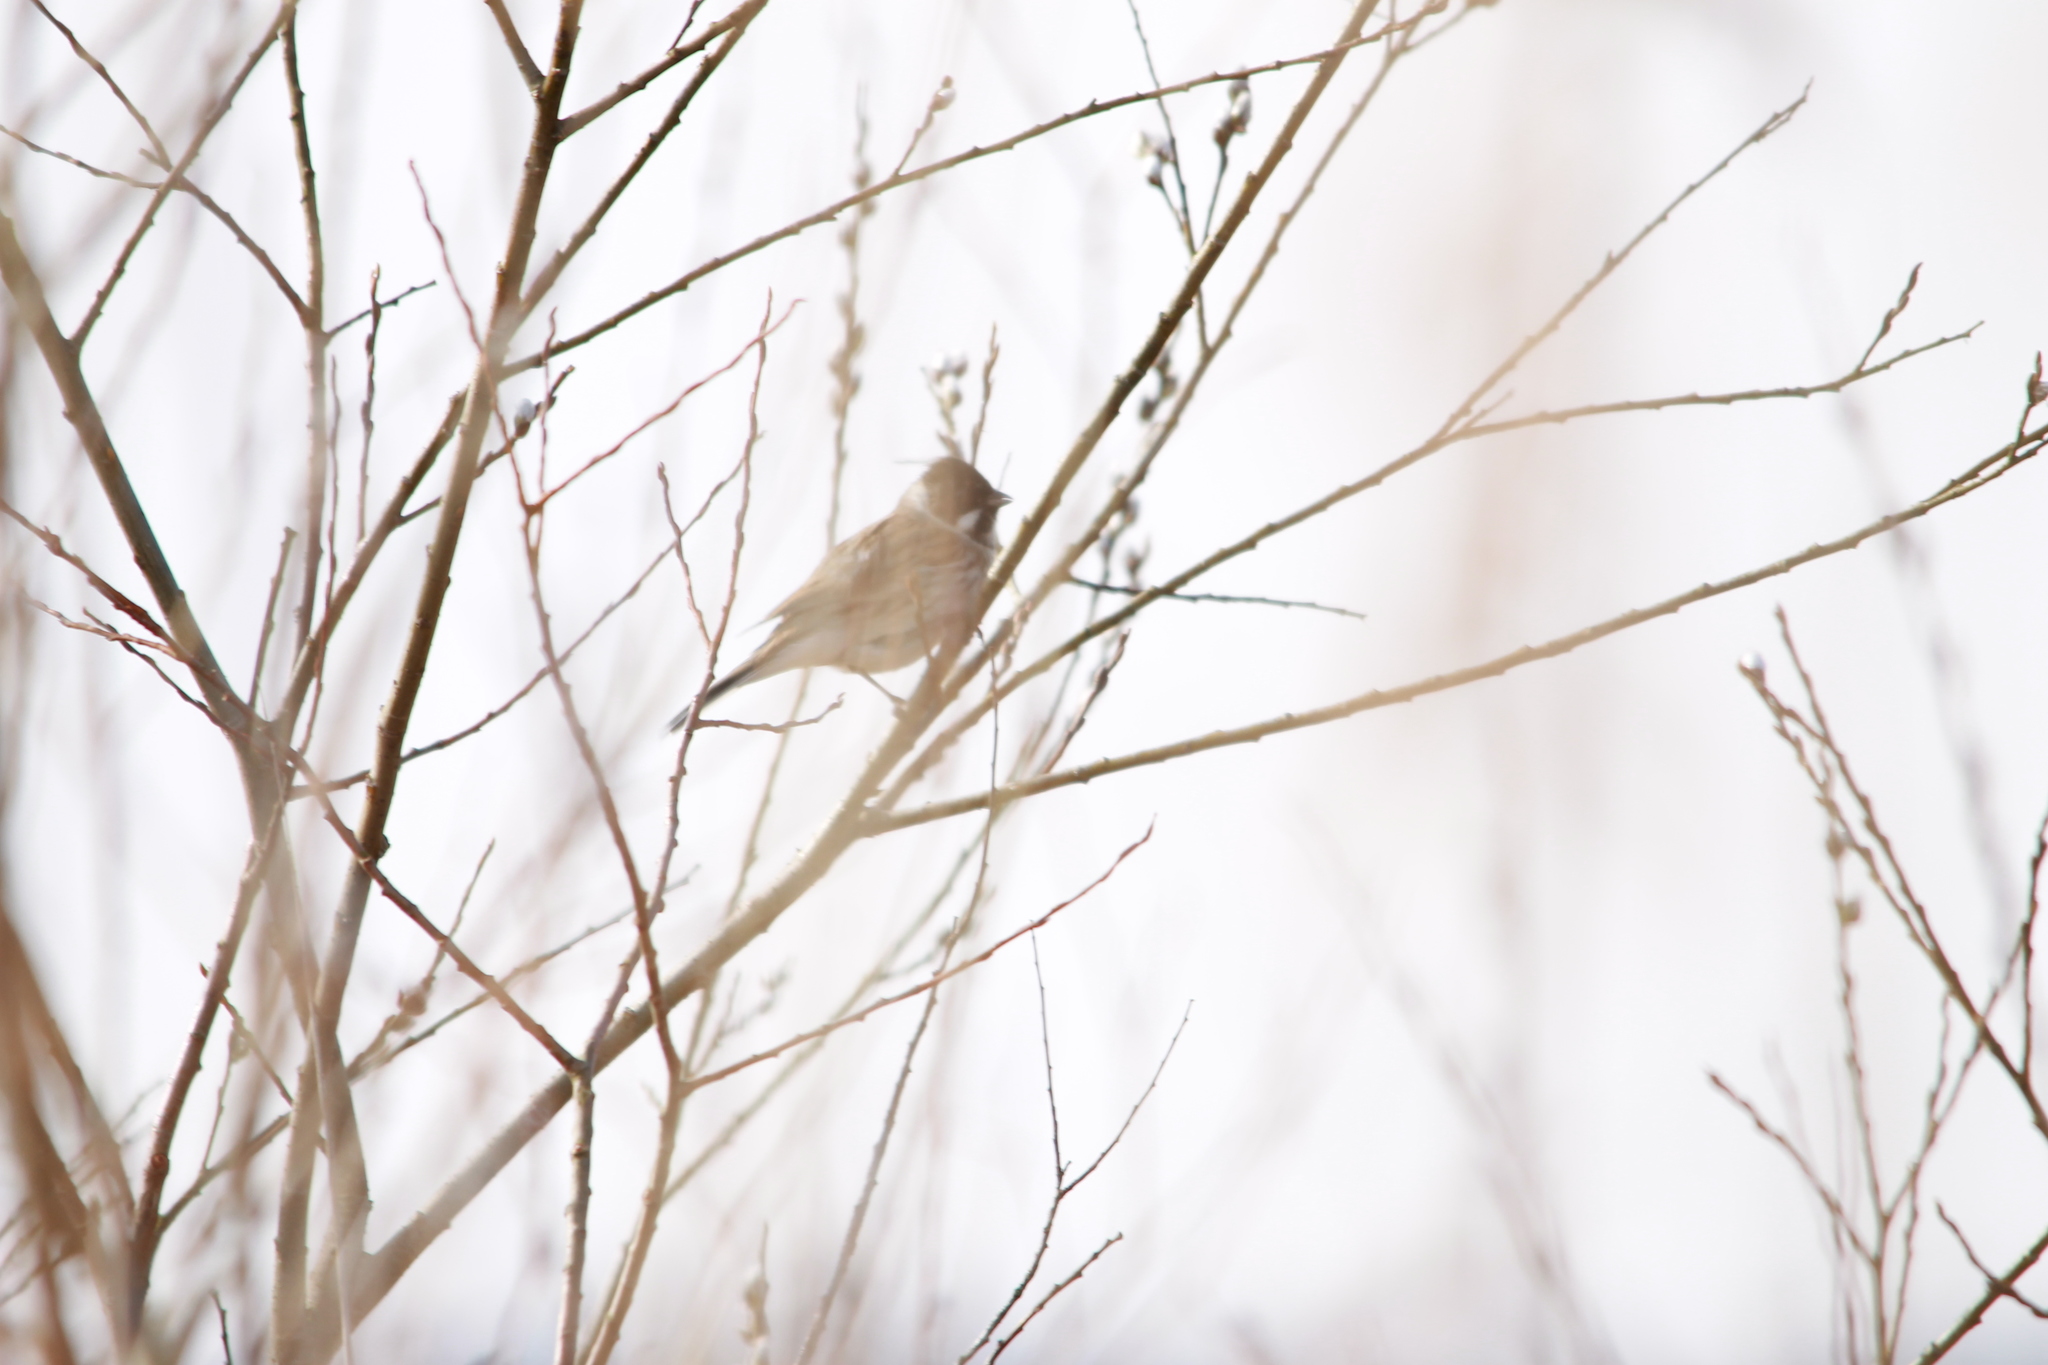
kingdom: Animalia
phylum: Chordata
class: Aves
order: Passeriformes
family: Emberizidae
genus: Emberiza
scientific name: Emberiza schoeniclus
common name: Reed bunting
